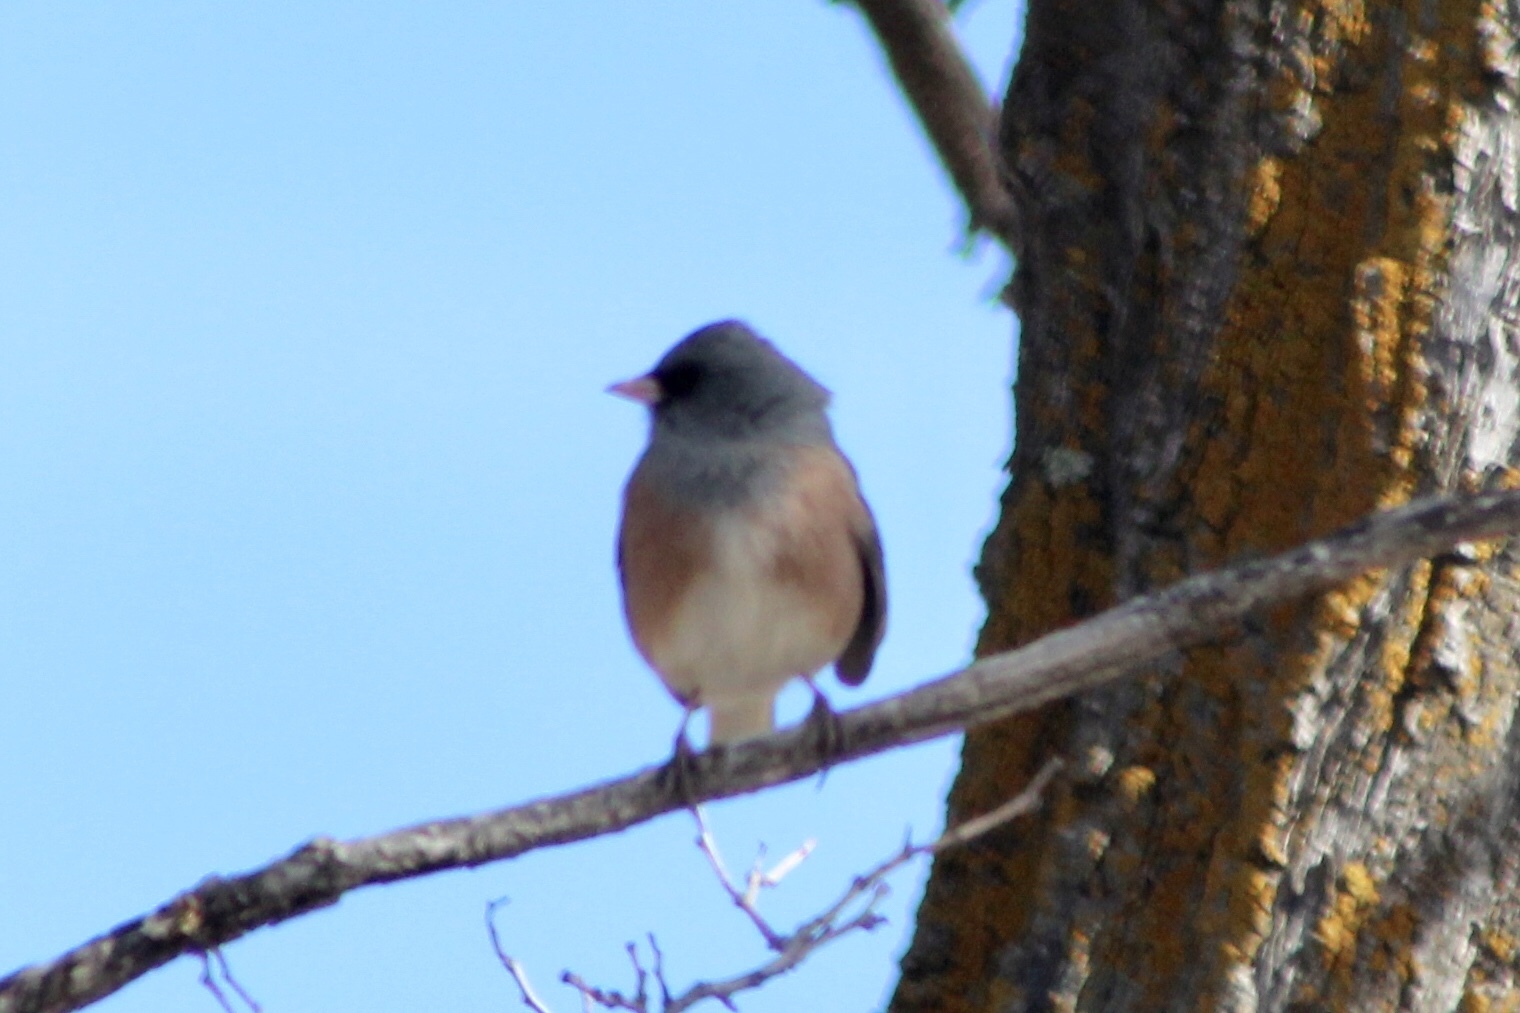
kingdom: Animalia
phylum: Chordata
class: Aves
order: Passeriformes
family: Passerellidae
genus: Junco
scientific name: Junco hyemalis
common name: Dark-eyed junco
